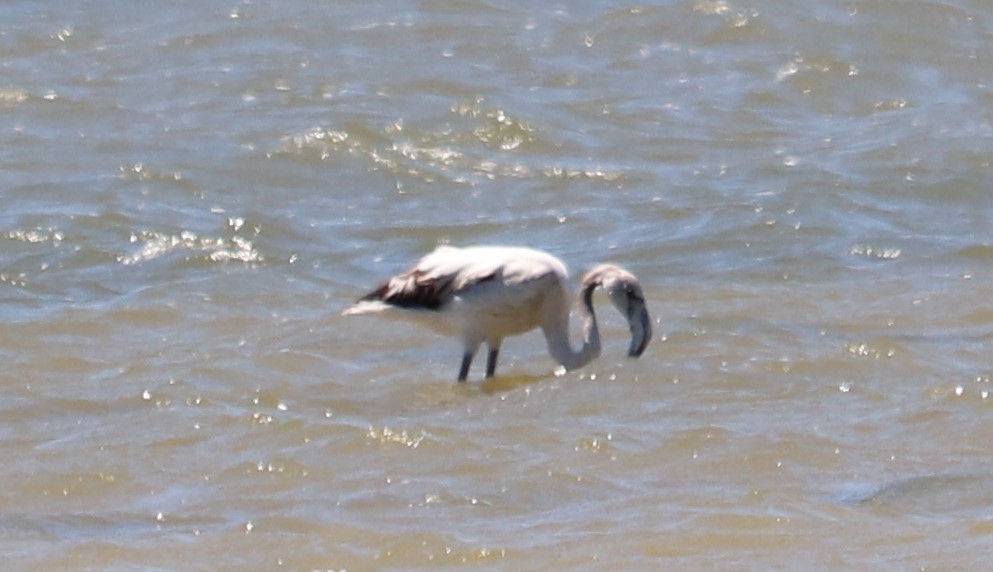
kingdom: Animalia
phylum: Chordata
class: Aves
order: Phoenicopteriformes
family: Phoenicopteridae
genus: Phoenicopterus
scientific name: Phoenicopterus roseus
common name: Greater flamingo
